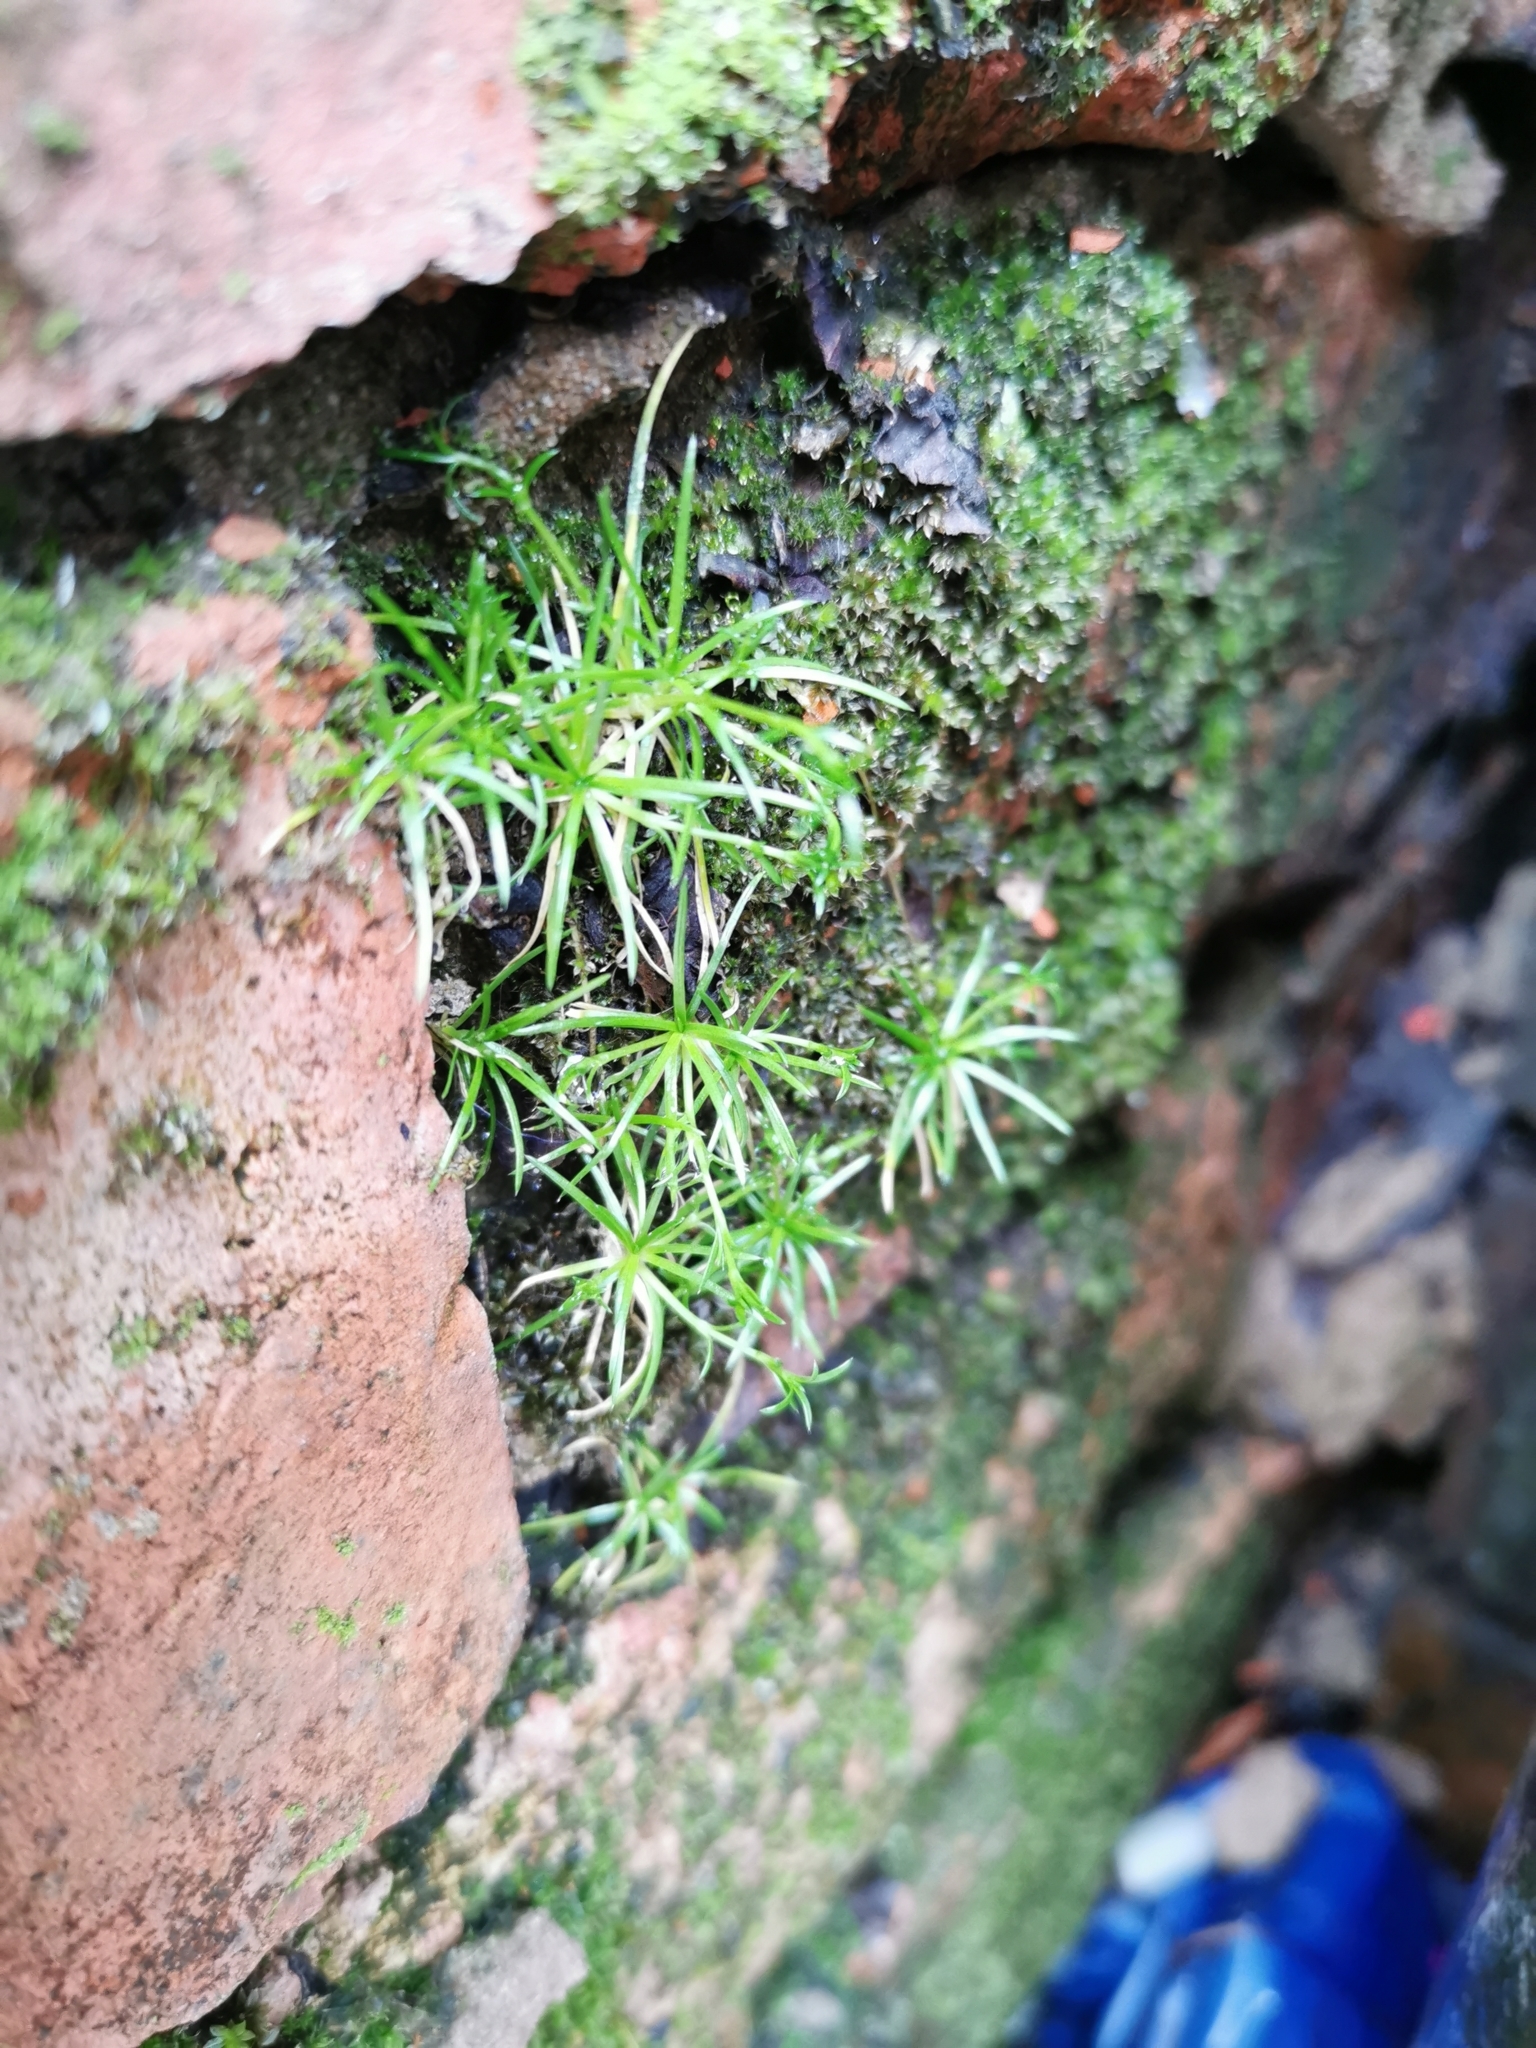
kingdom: Plantae
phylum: Tracheophyta
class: Magnoliopsida
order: Caryophyllales
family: Caryophyllaceae
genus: Sagina
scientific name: Sagina procumbens
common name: Procumbent pearlwort
